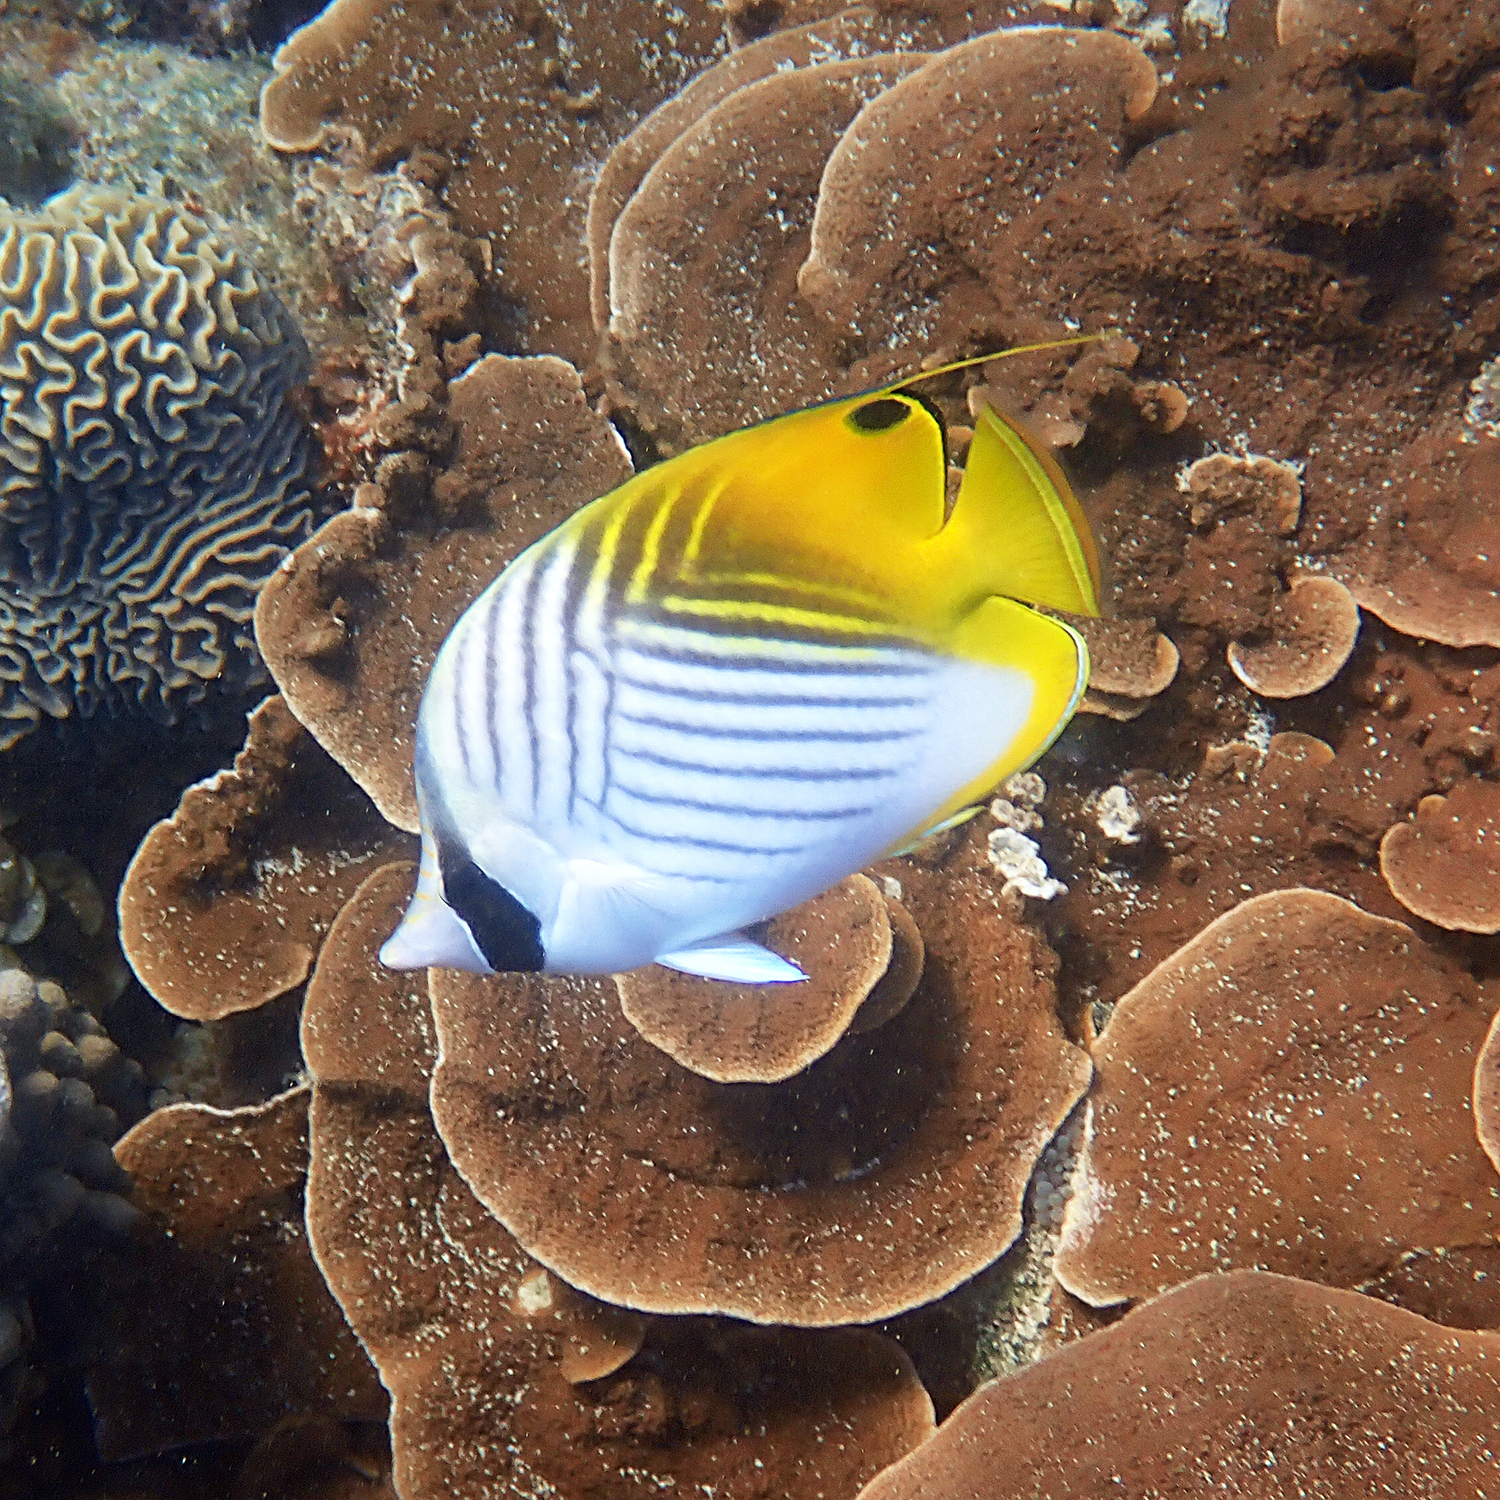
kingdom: Animalia
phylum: Chordata
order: Perciformes
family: Chaetodontidae
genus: Chaetodon
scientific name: Chaetodon auriga
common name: Threadfin butterflyfish
